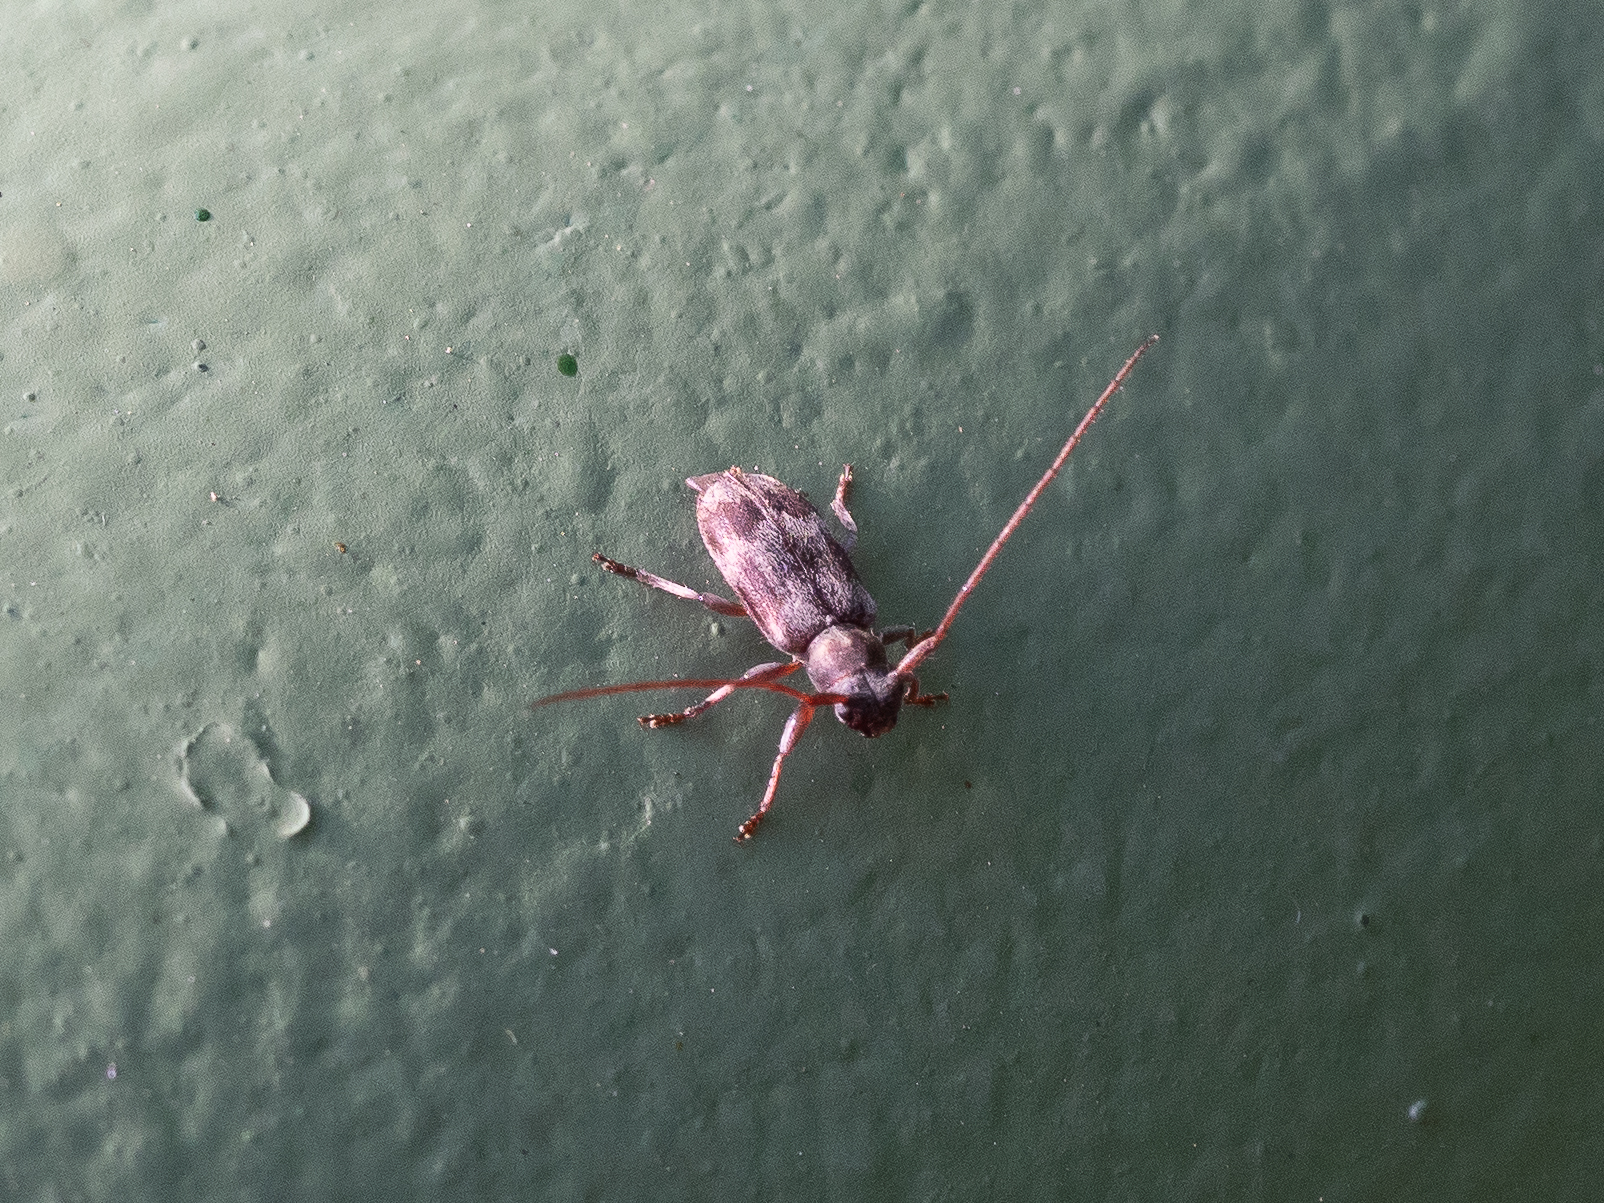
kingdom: Animalia
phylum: Arthropoda
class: Insecta
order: Coleoptera
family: Cerambycidae
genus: Exocentrus
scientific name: Exocentrus lusitanus
